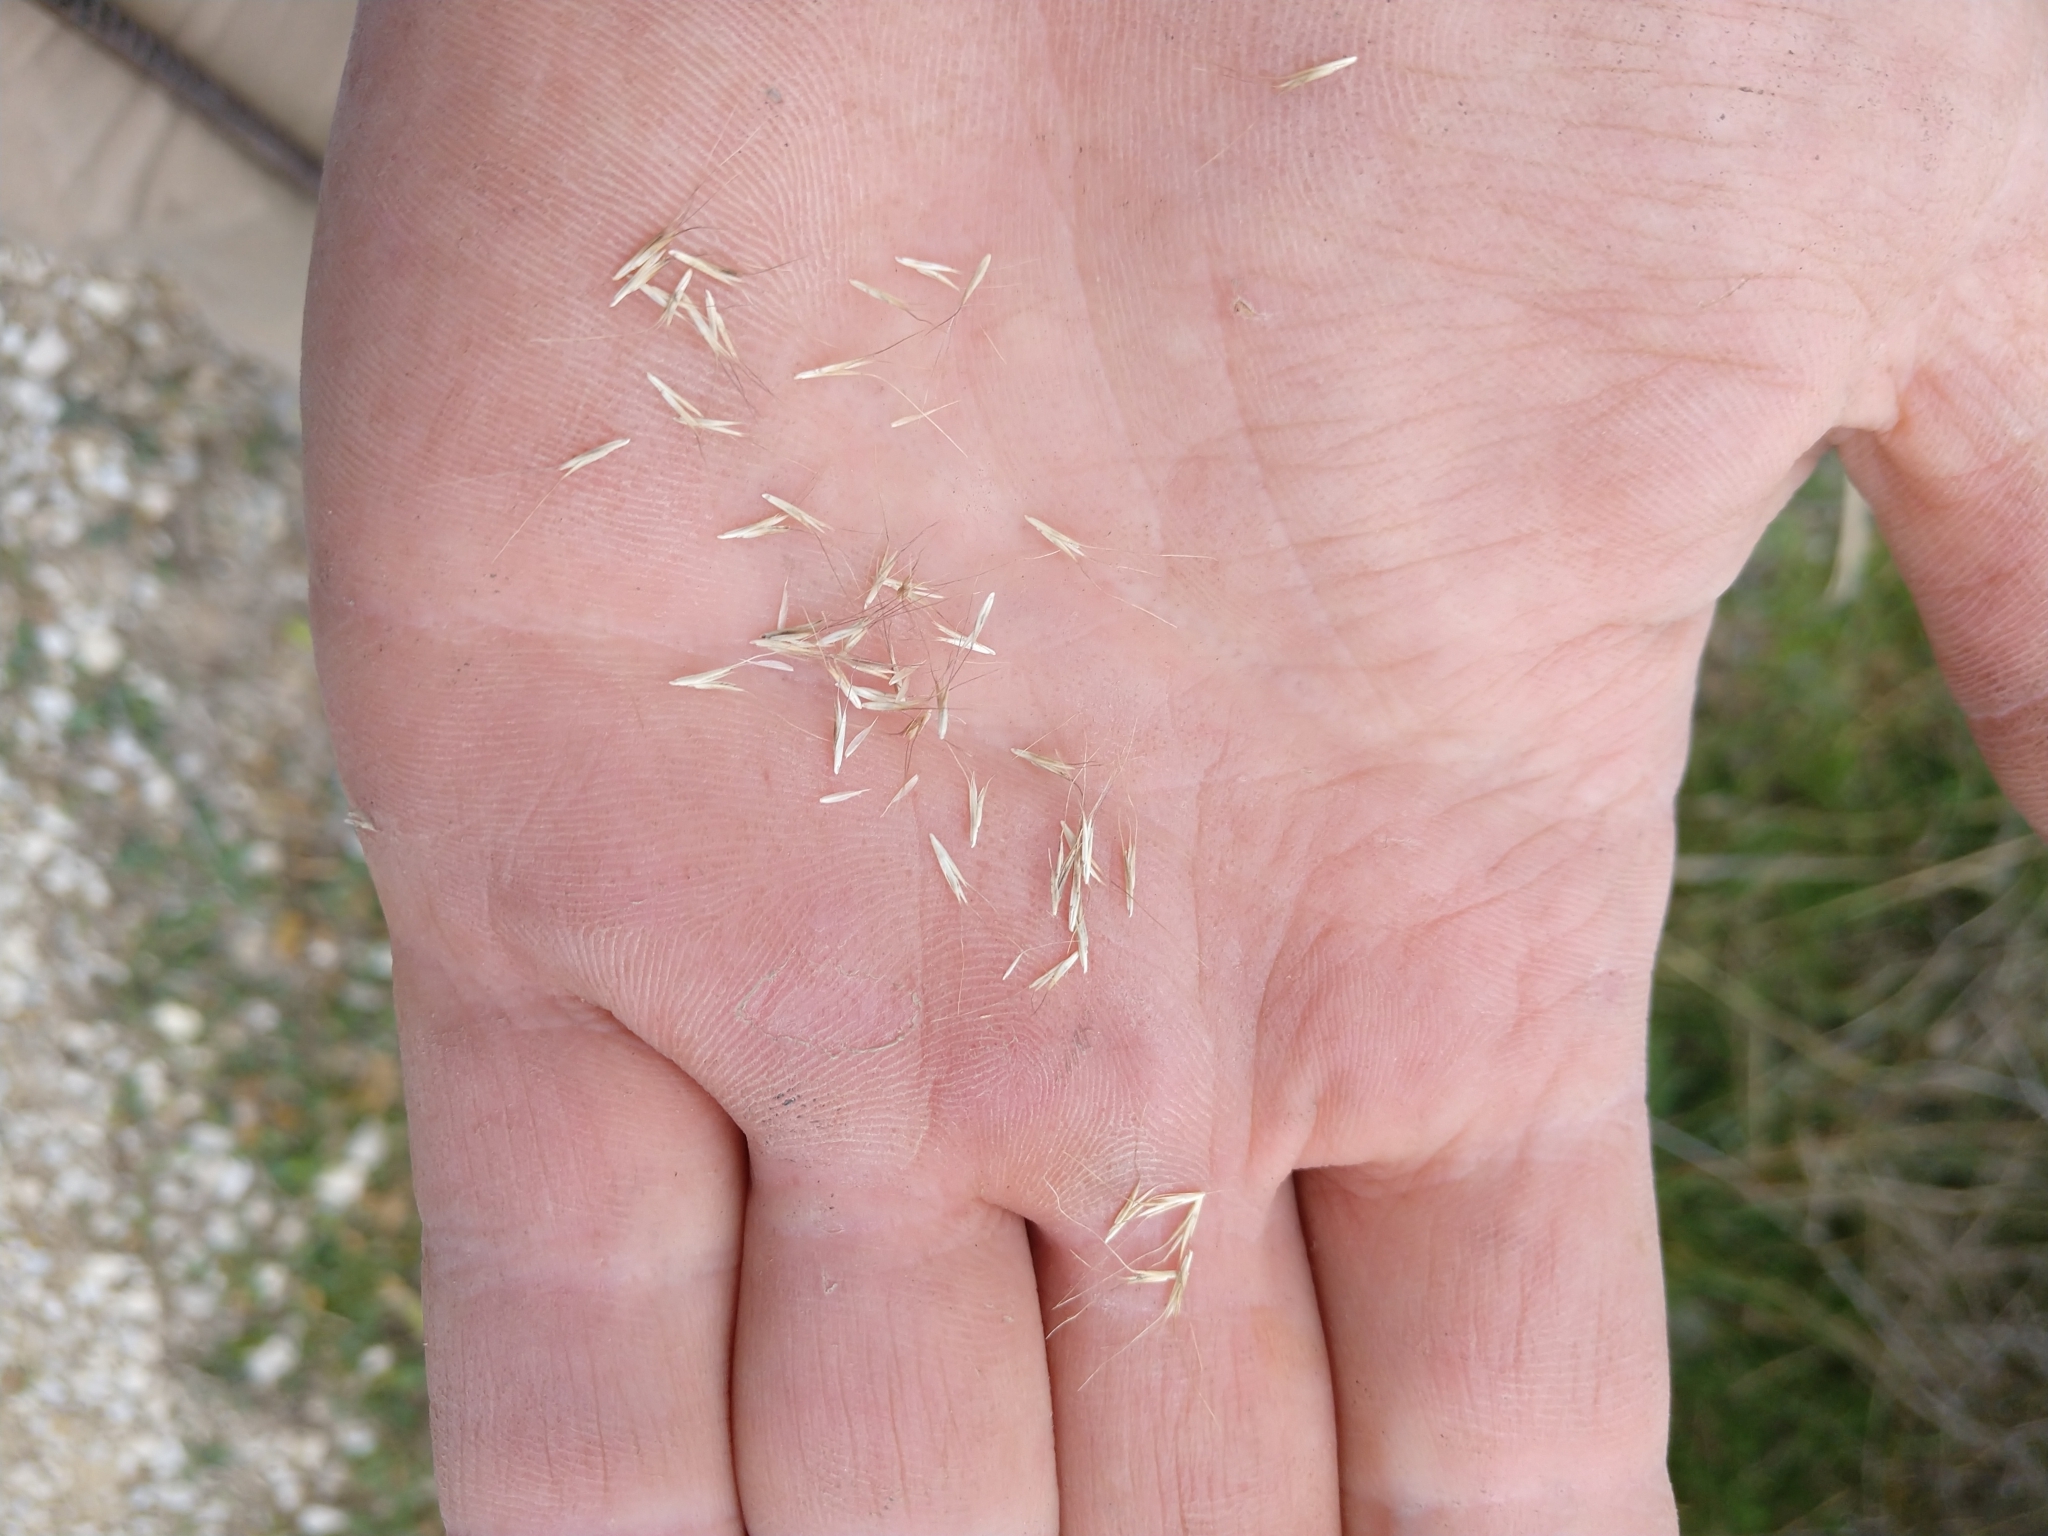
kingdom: Plantae
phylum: Tracheophyta
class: Liliopsida
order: Poales
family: Poaceae
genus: Leptochloa
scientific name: Leptochloa pluriflora
